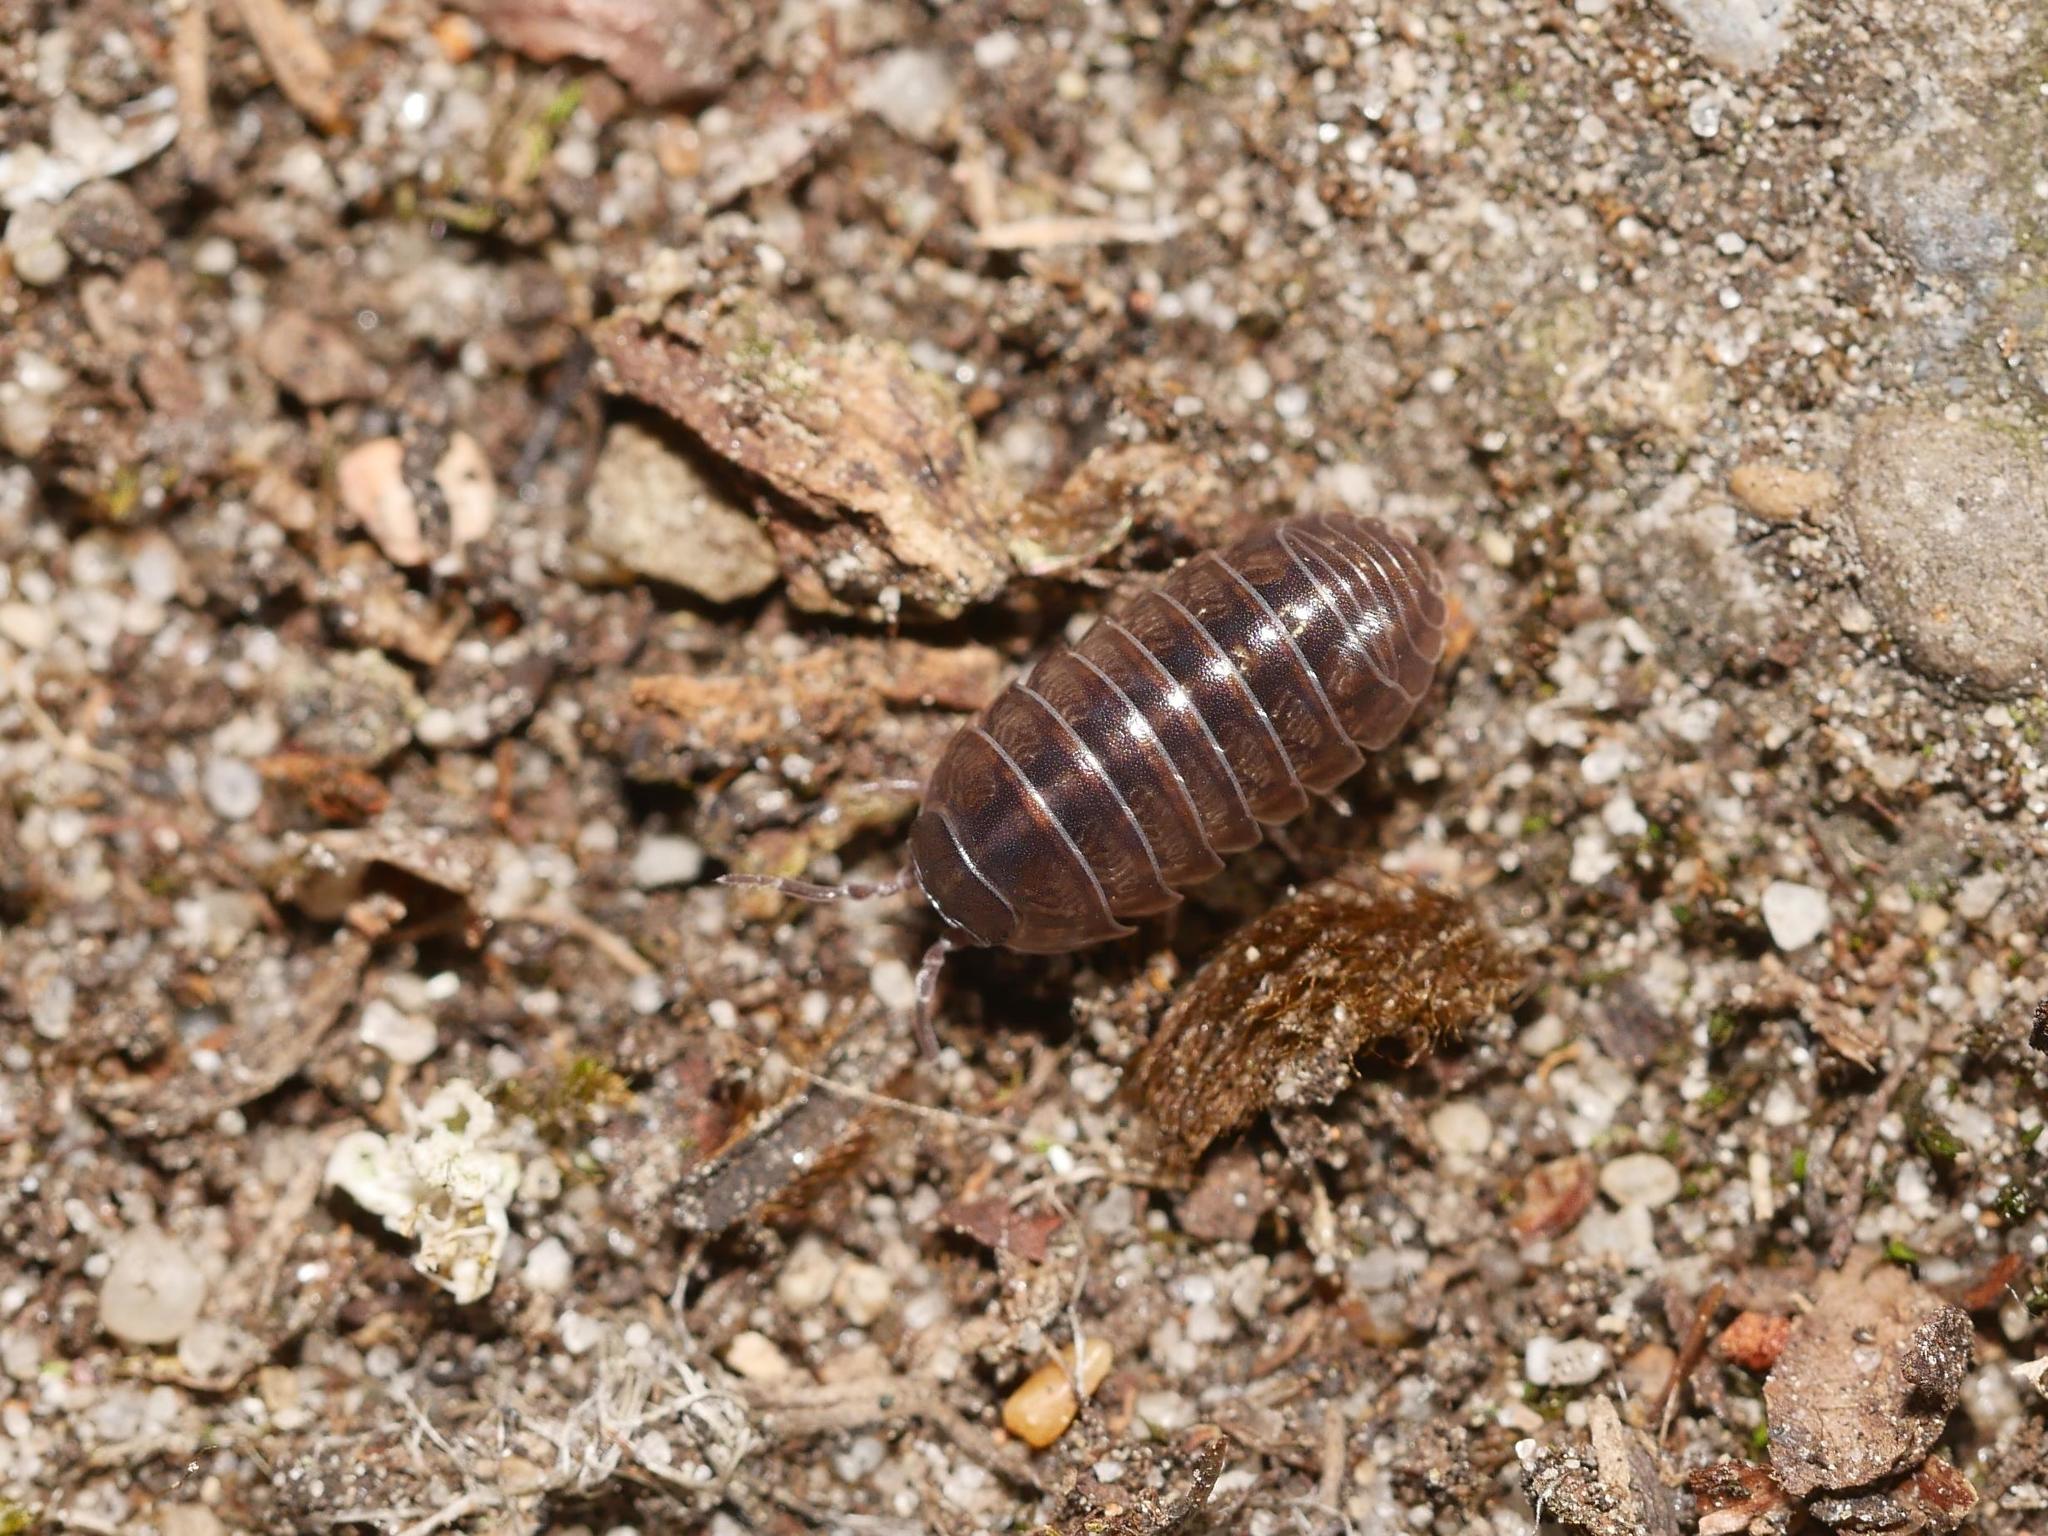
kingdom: Animalia
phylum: Arthropoda
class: Malacostraca
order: Isopoda
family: Armadillidiidae
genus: Armadillidium
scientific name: Armadillidium vulgare
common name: Common pill woodlouse
